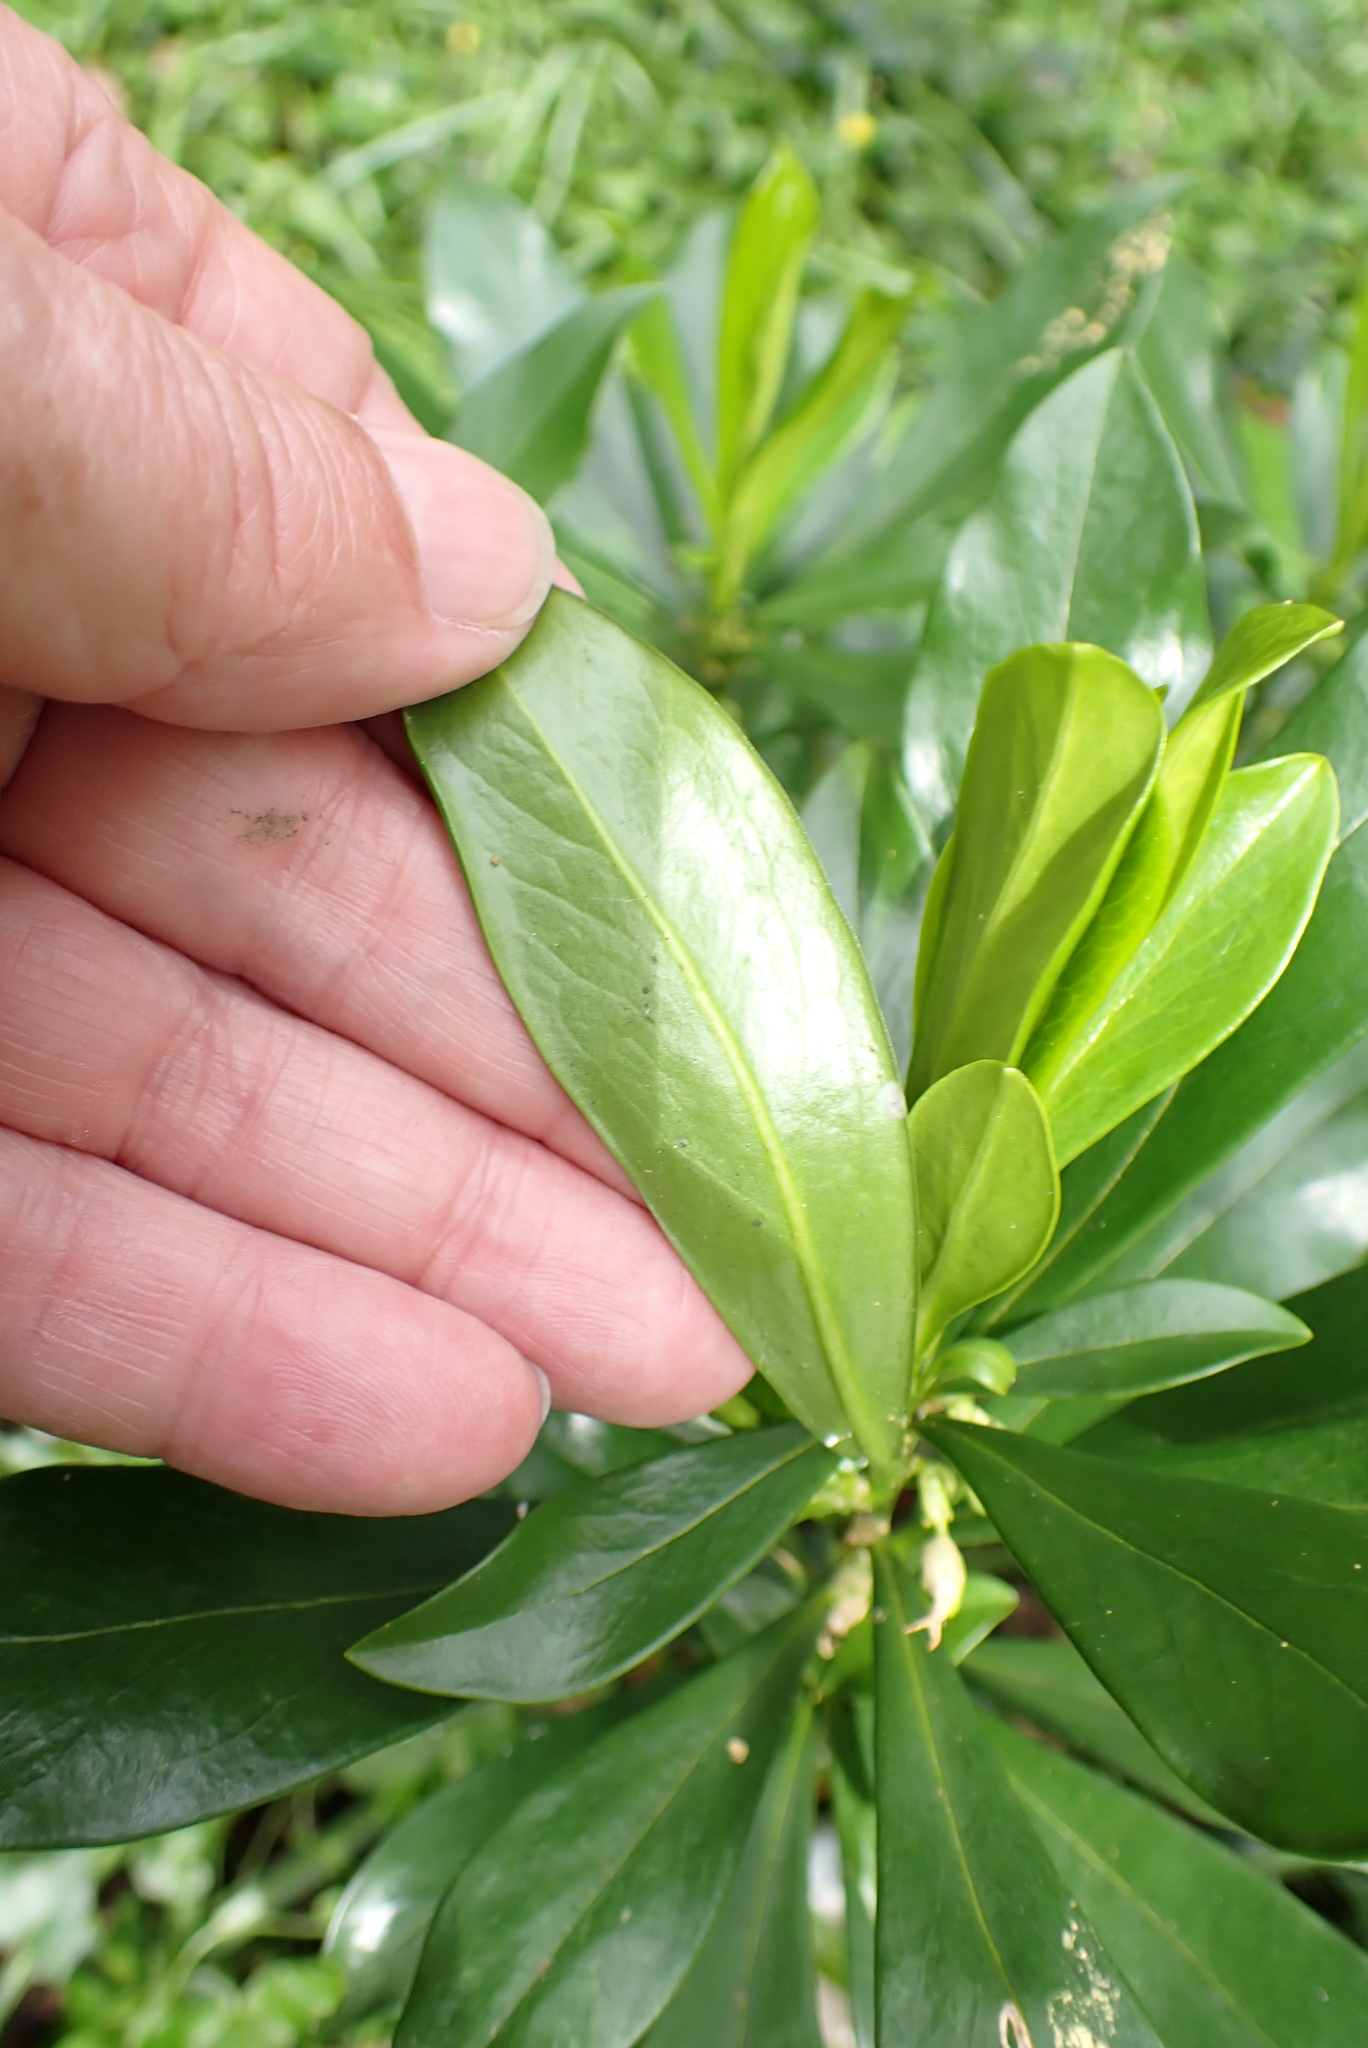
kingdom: Plantae
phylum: Tracheophyta
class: Magnoliopsida
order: Malvales
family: Thymelaeaceae
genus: Daphne
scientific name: Daphne laureola
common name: Spurge-laurel
